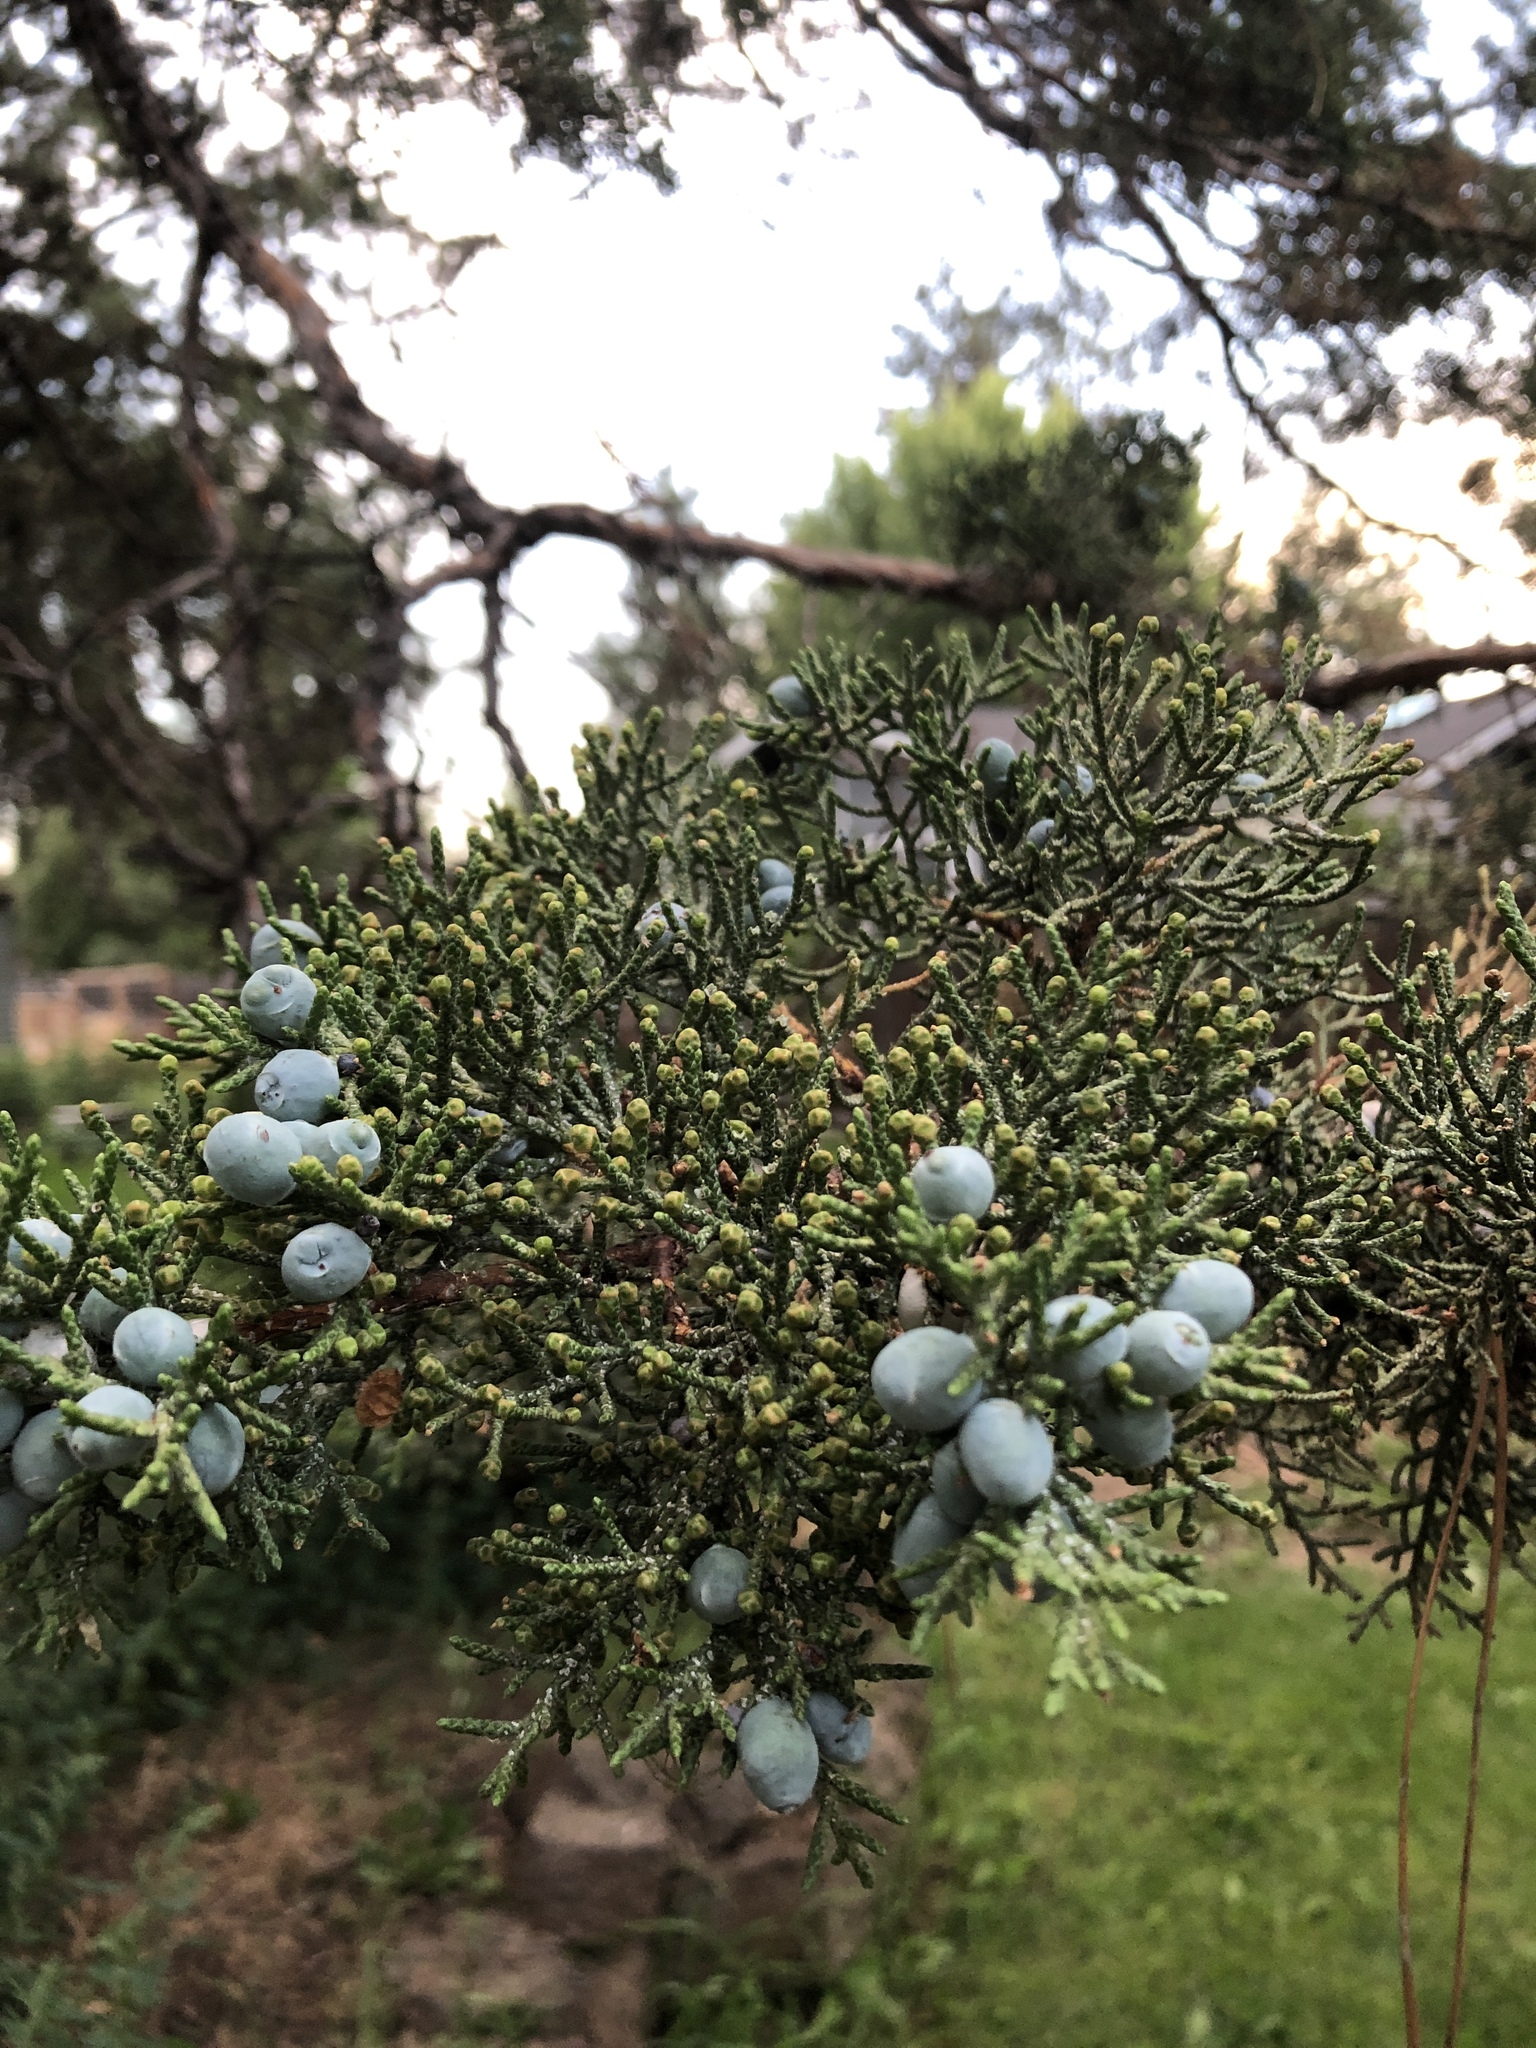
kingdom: Plantae
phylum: Tracheophyta
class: Pinopsida
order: Pinales
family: Cupressaceae
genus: Juniperus
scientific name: Juniperus occidentalis
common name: Western juniper
